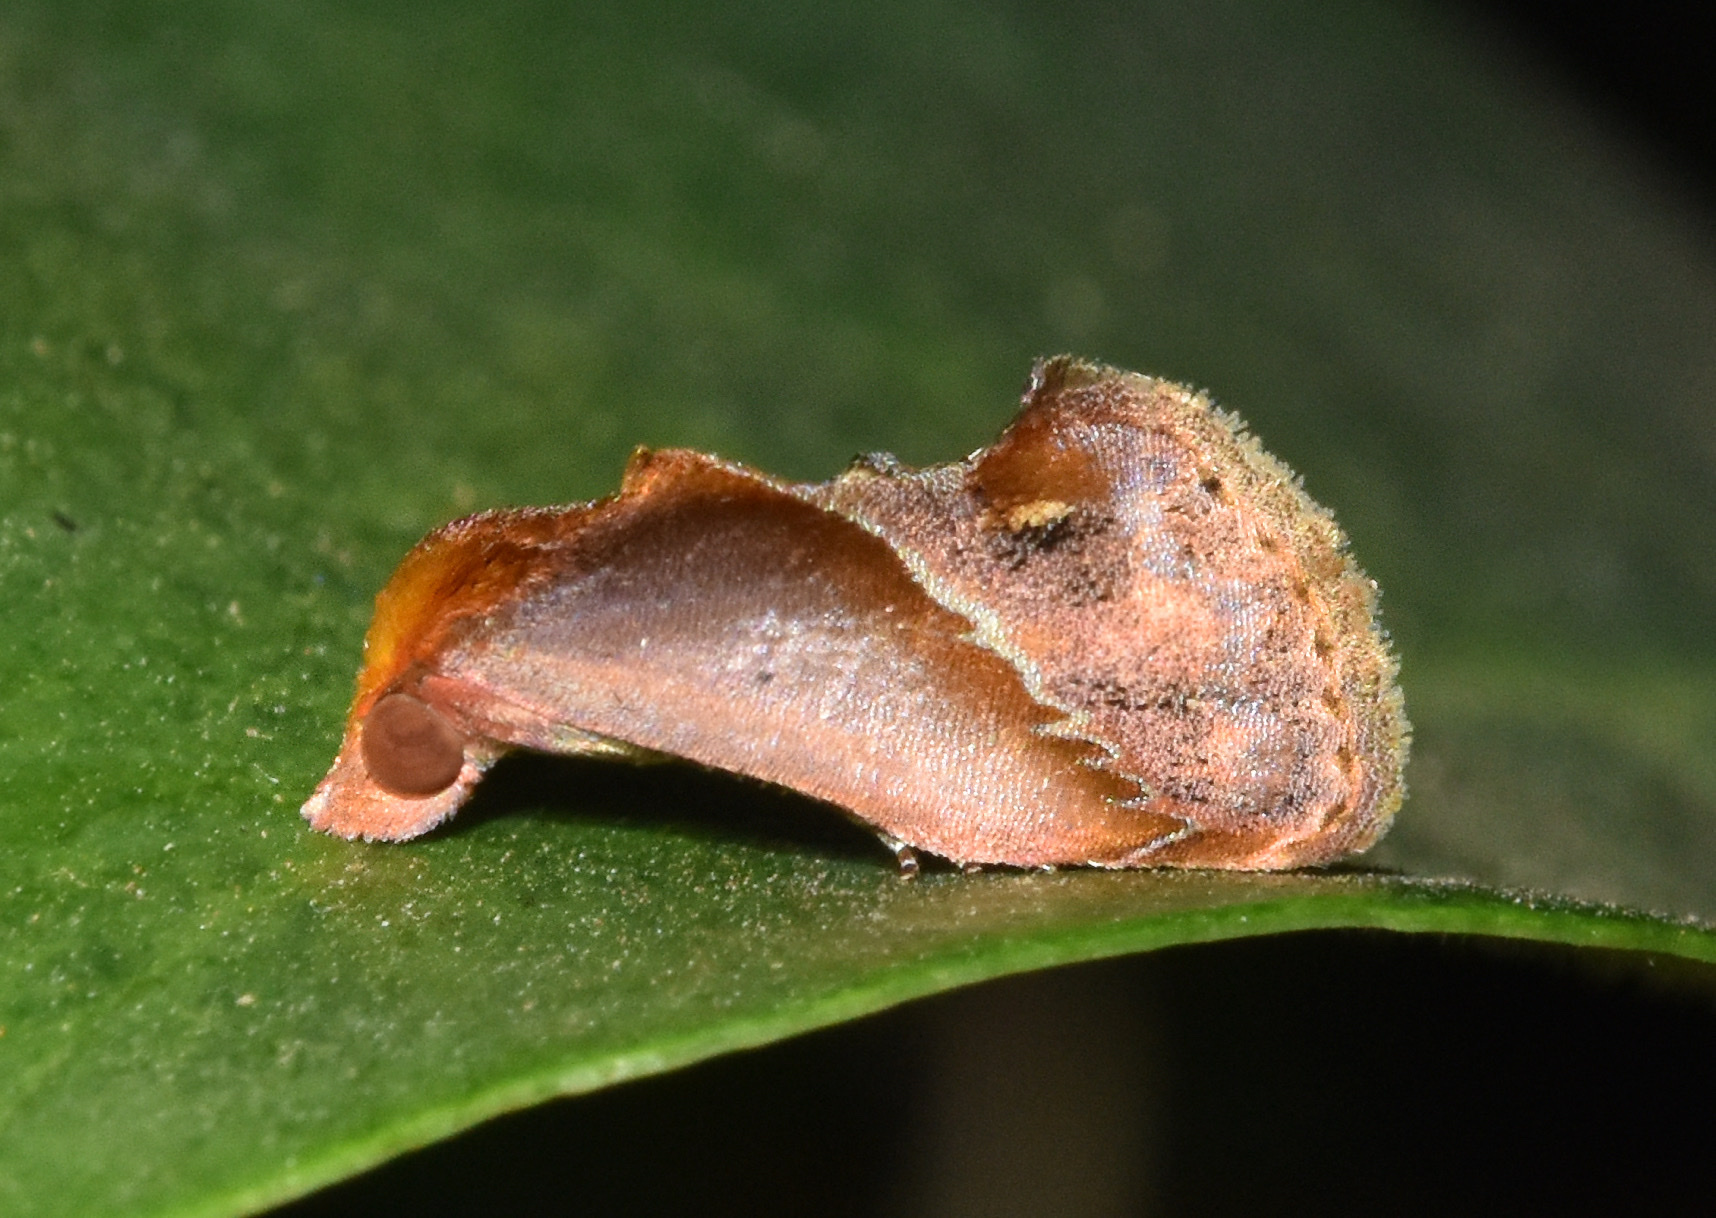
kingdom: Animalia
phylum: Arthropoda
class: Insecta
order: Lepidoptera
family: Erebidae
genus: Arsacia
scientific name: Arsacia rectalis
